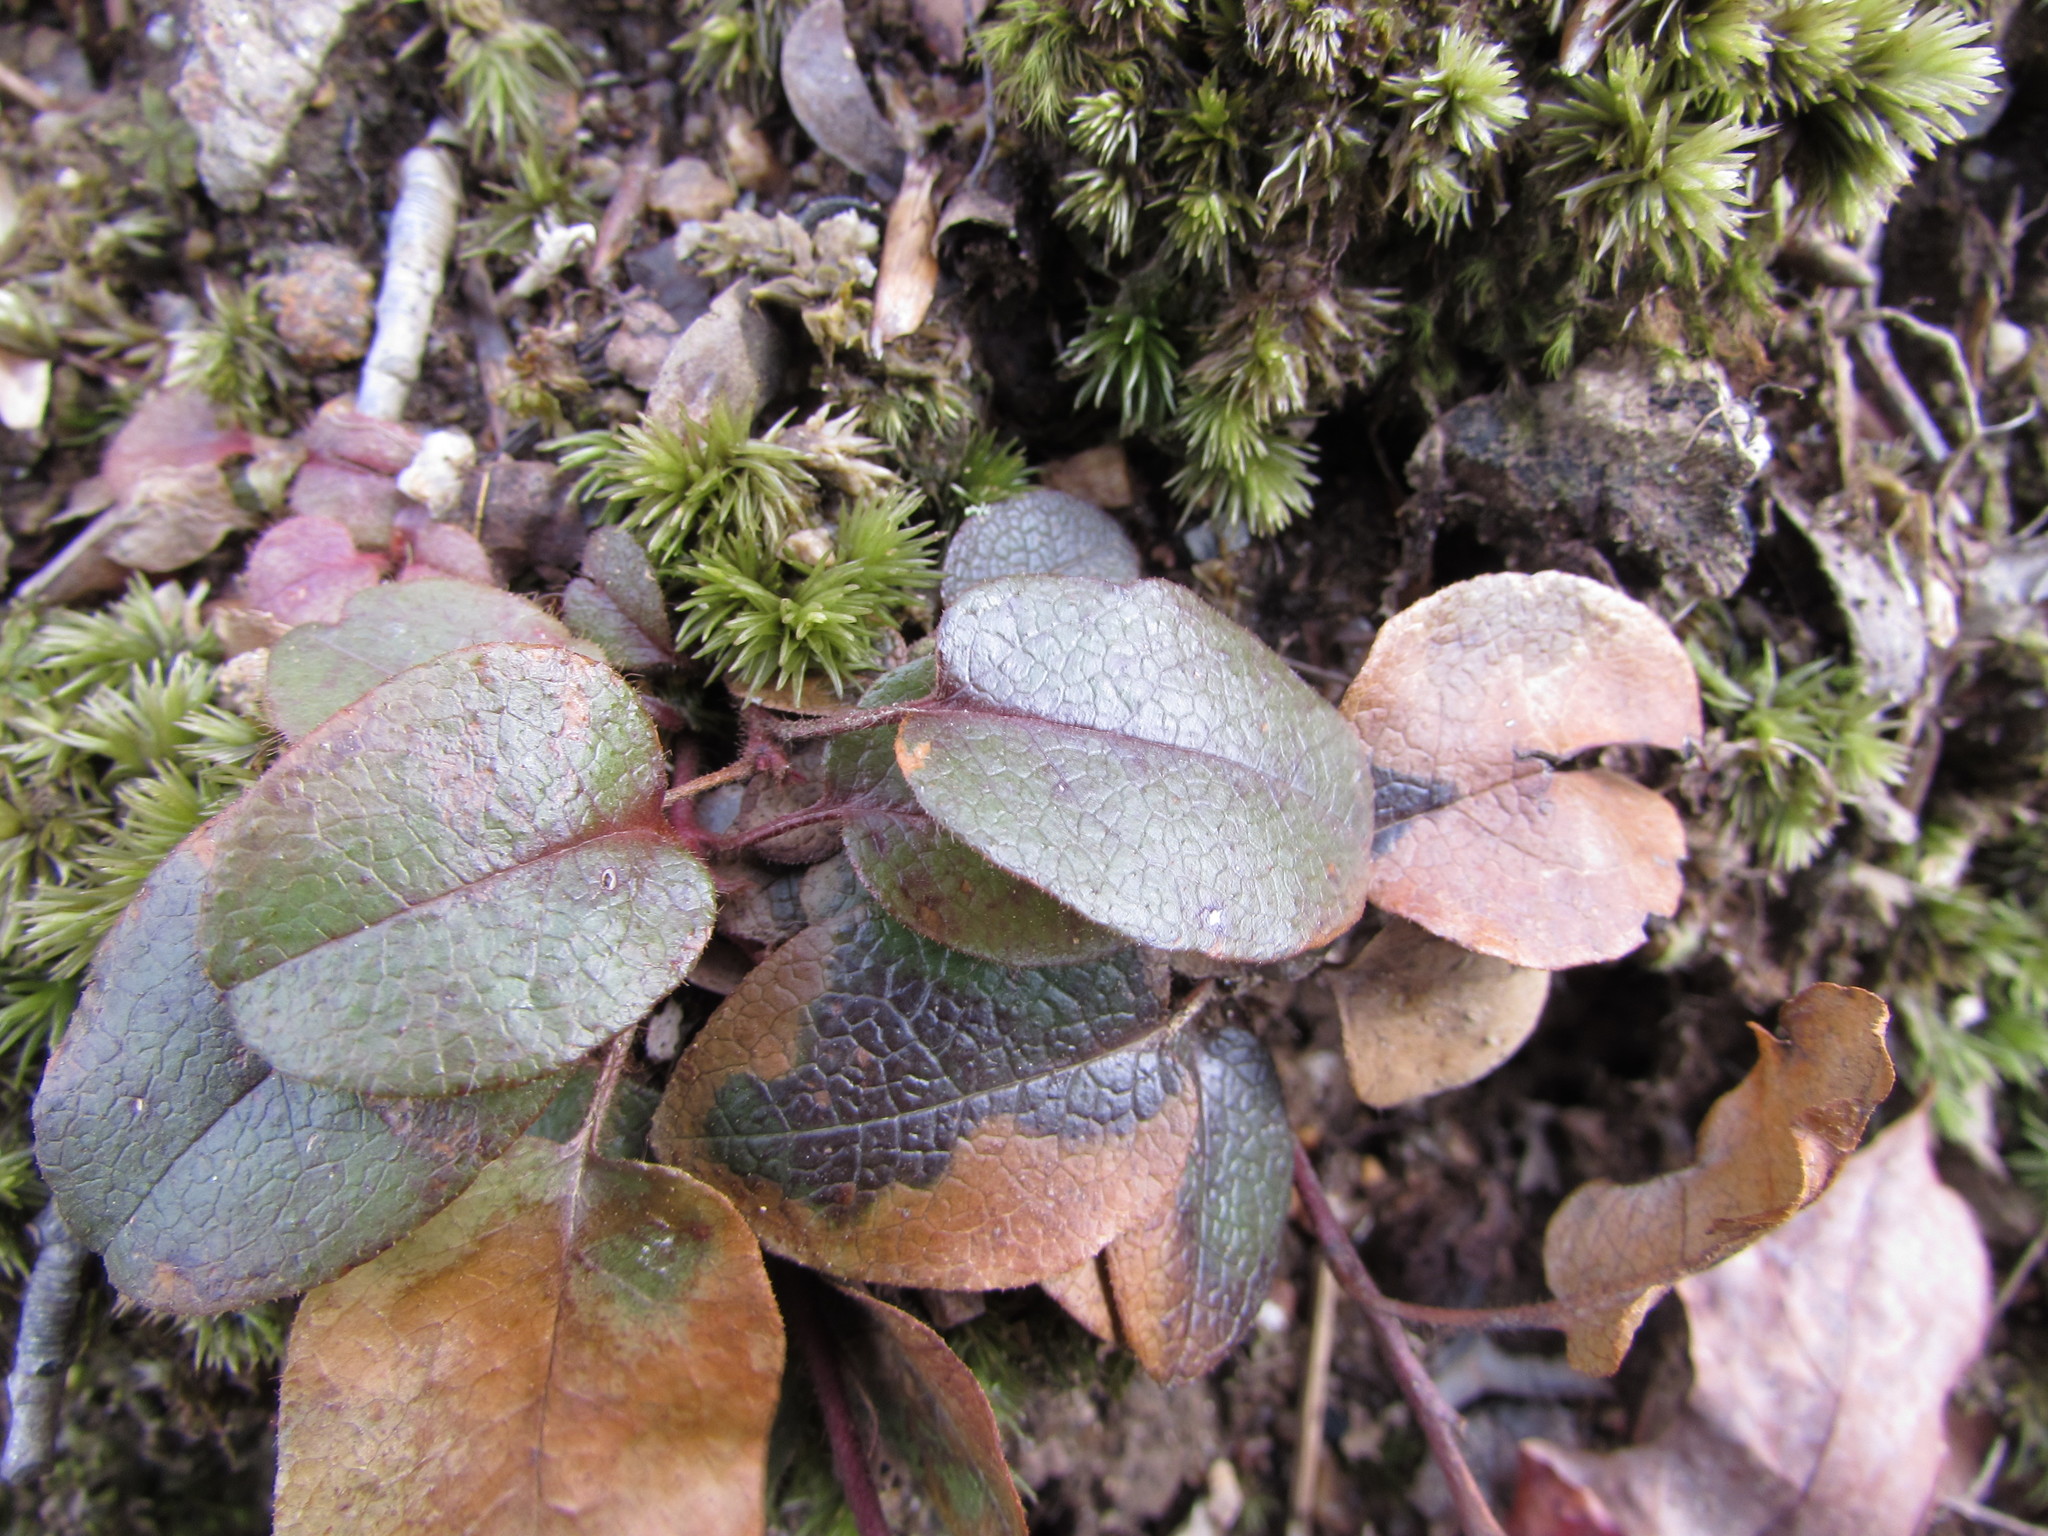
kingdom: Plantae
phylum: Tracheophyta
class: Magnoliopsida
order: Ericales
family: Ericaceae
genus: Epigaea
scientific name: Epigaea repens
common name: Gravelroot
